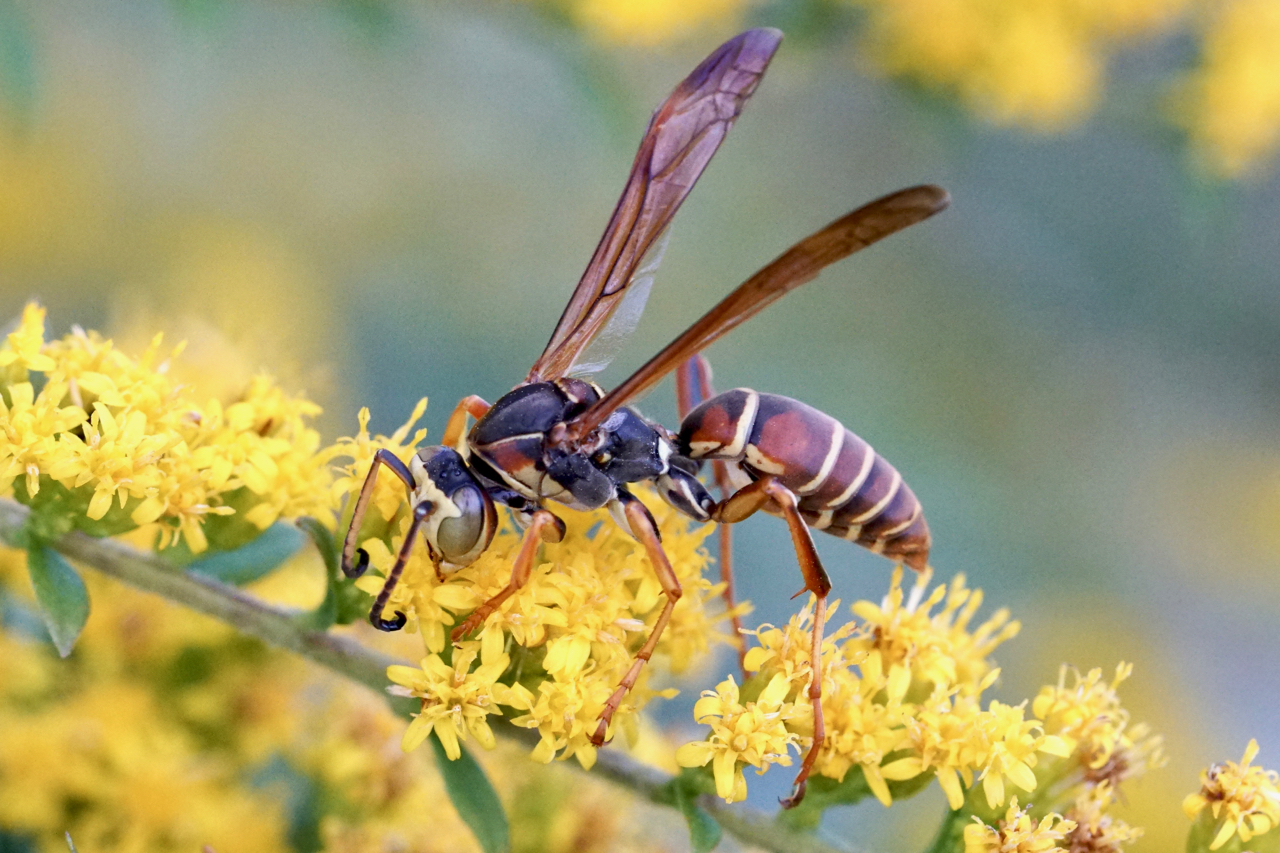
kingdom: Animalia
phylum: Arthropoda
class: Insecta
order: Hymenoptera
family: Eumenidae
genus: Polistes
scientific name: Polistes fuscatus
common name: Dark paper wasp
